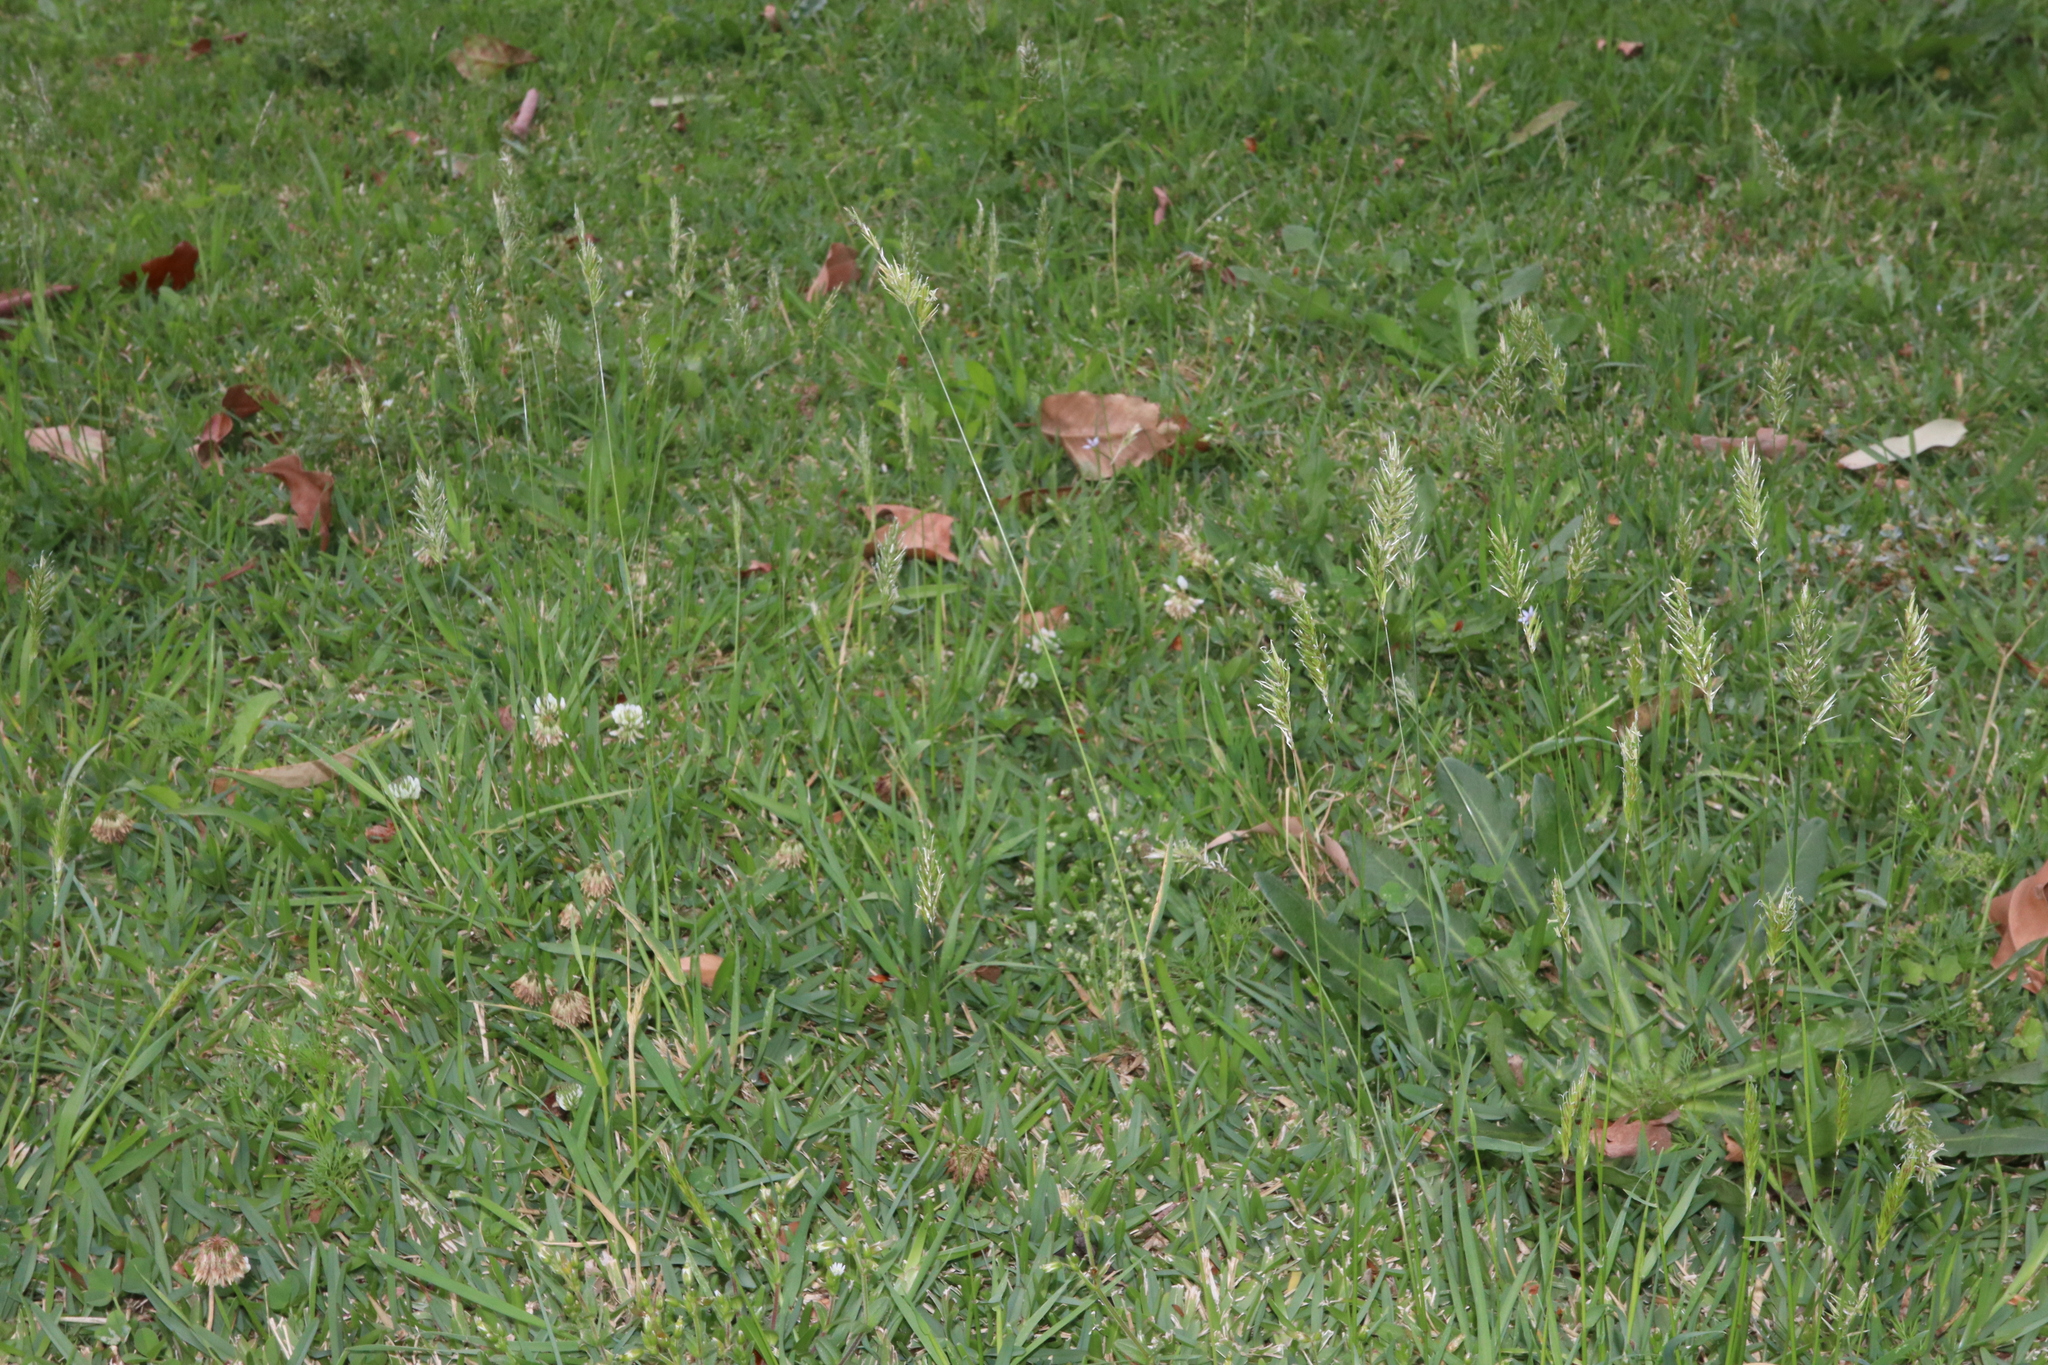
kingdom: Plantae
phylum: Tracheophyta
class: Liliopsida
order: Poales
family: Poaceae
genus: Anthoxanthum
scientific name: Anthoxanthum odoratum
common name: Sweet vernalgrass
